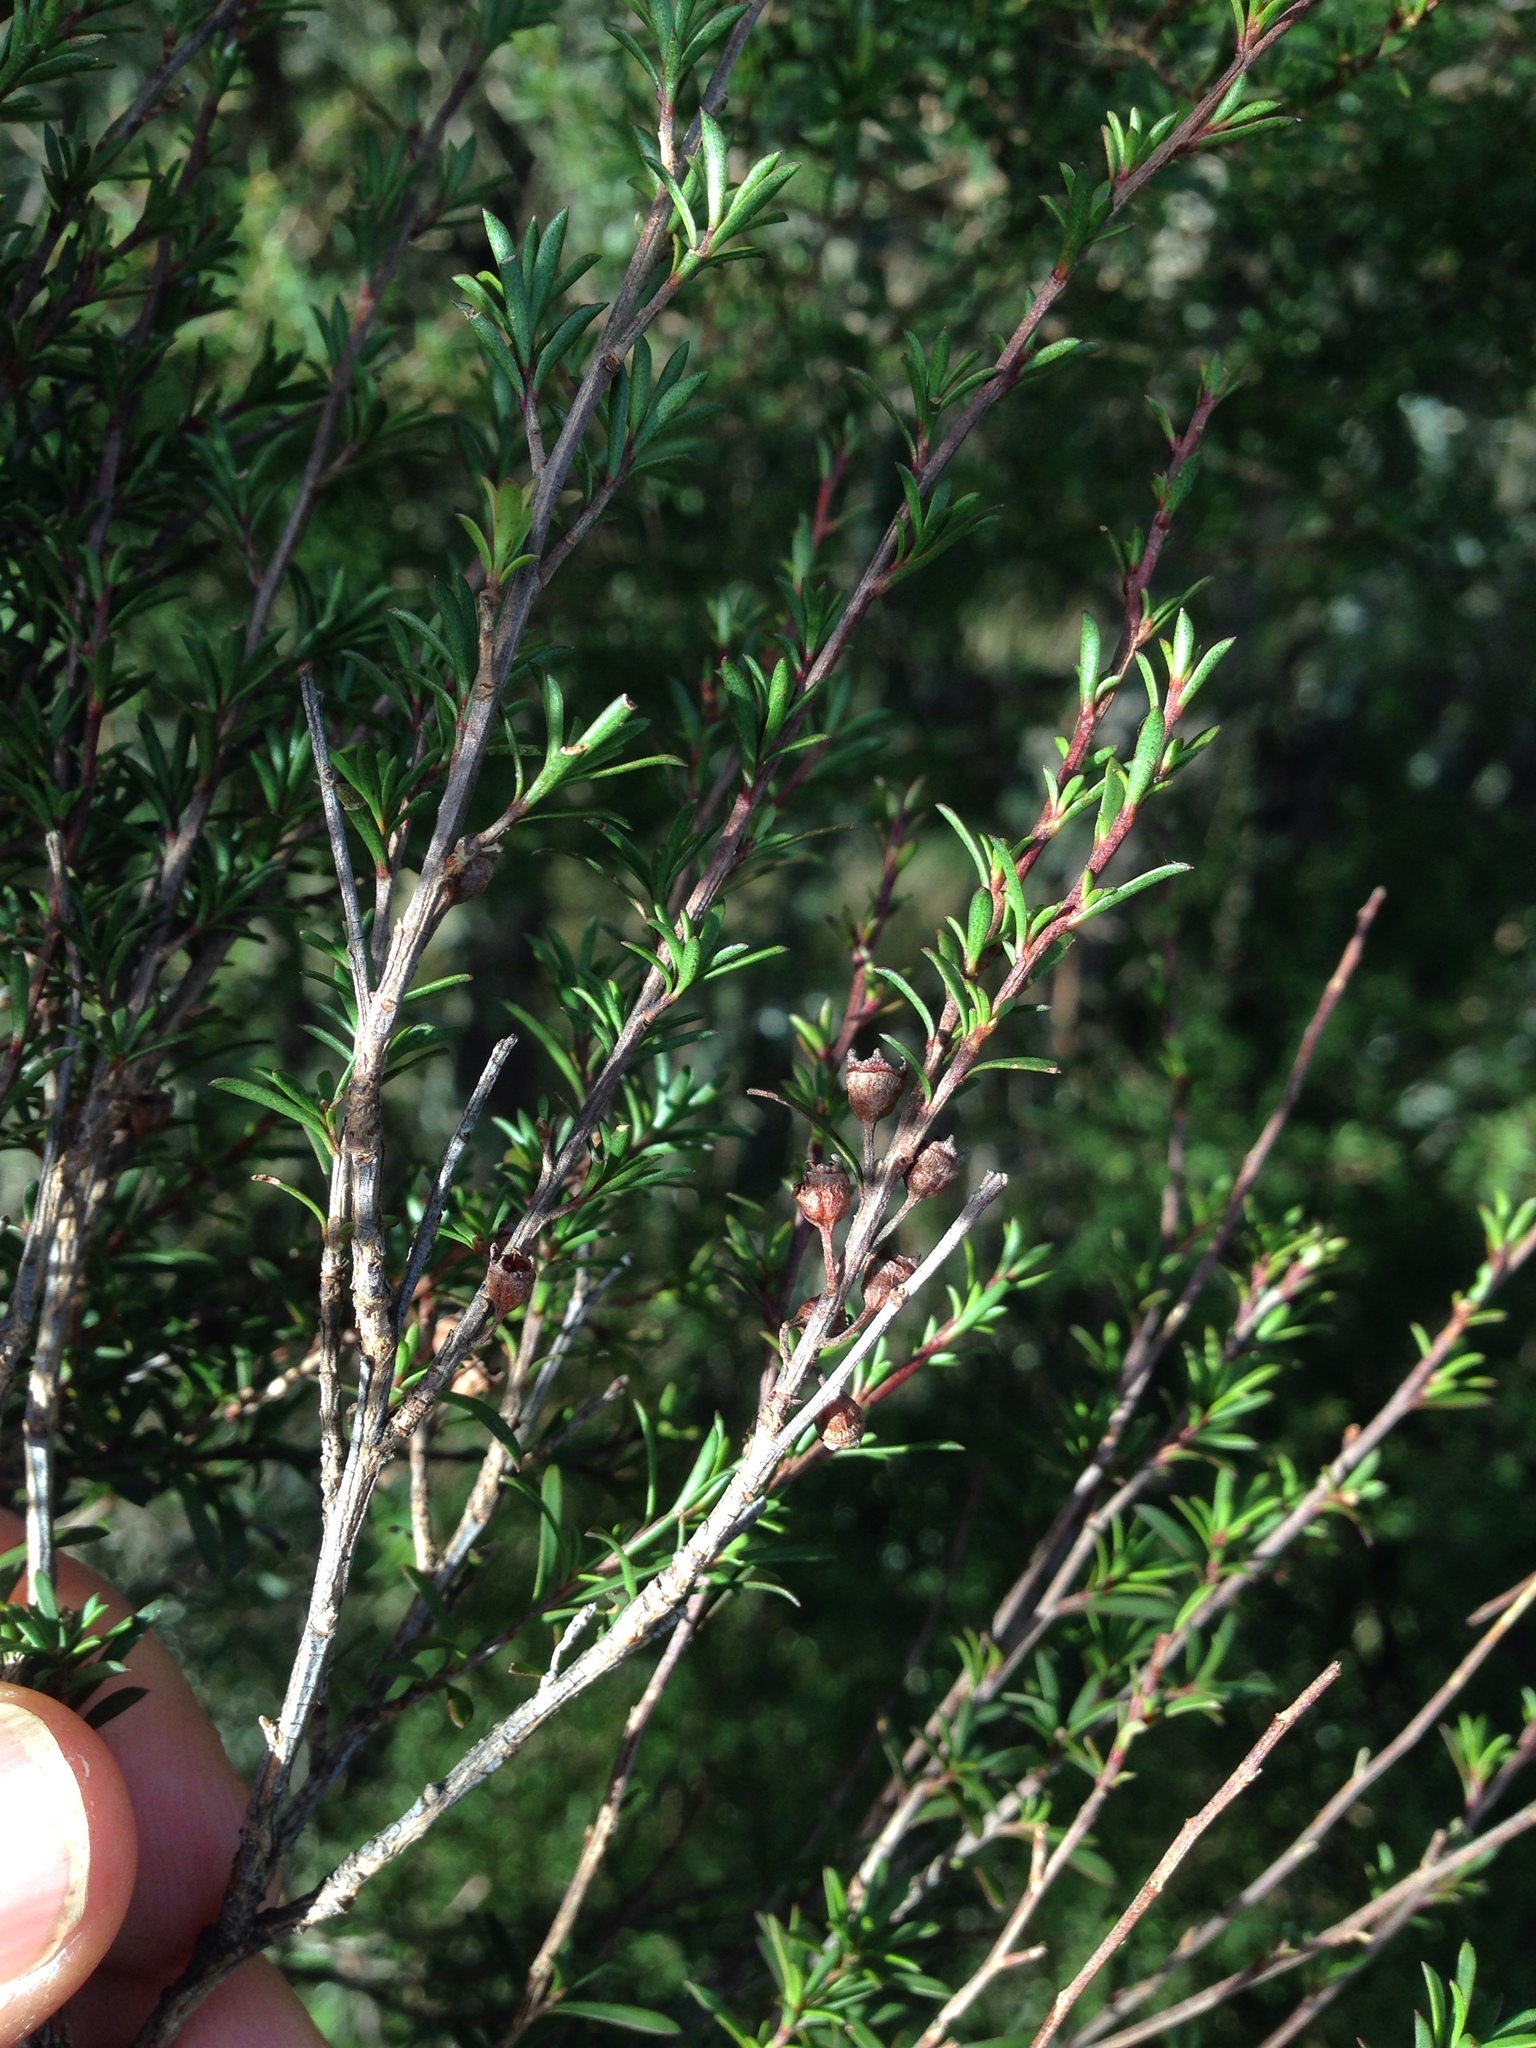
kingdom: Plantae
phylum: Tracheophyta
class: Magnoliopsida
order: Myrtales
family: Myrtaceae
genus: Kunzea
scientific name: Kunzea robusta
